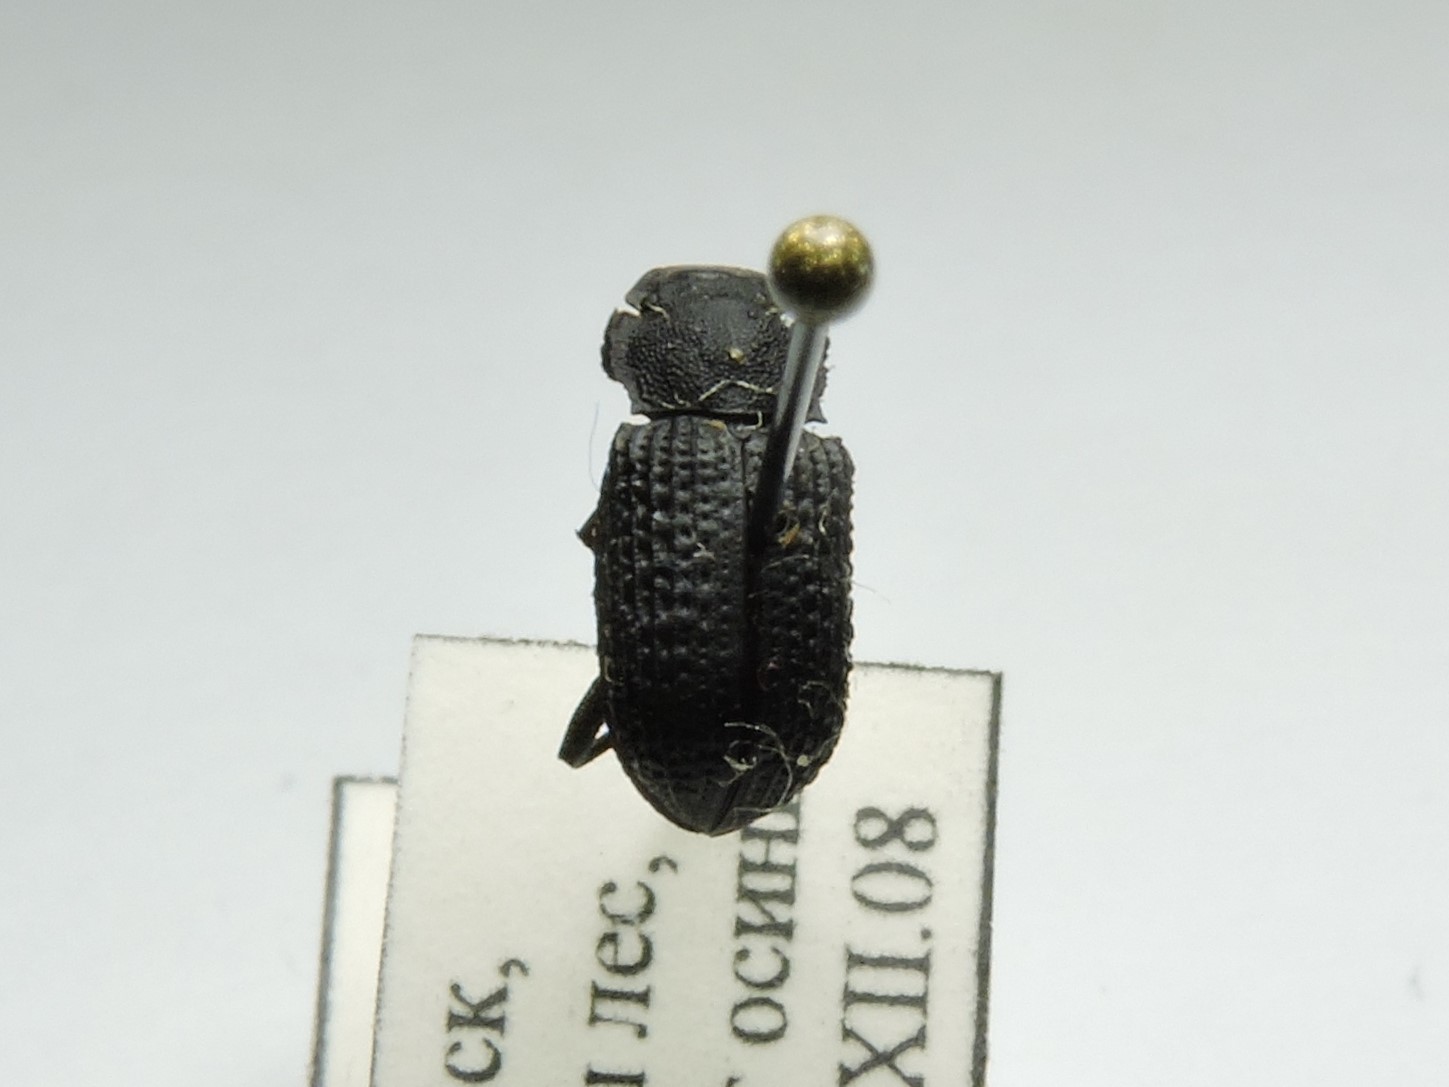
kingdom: Animalia
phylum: Arthropoda
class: Insecta
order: Coleoptera
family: Tenebrionidae
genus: Bolitophagus
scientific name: Bolitophagus reticulatus
